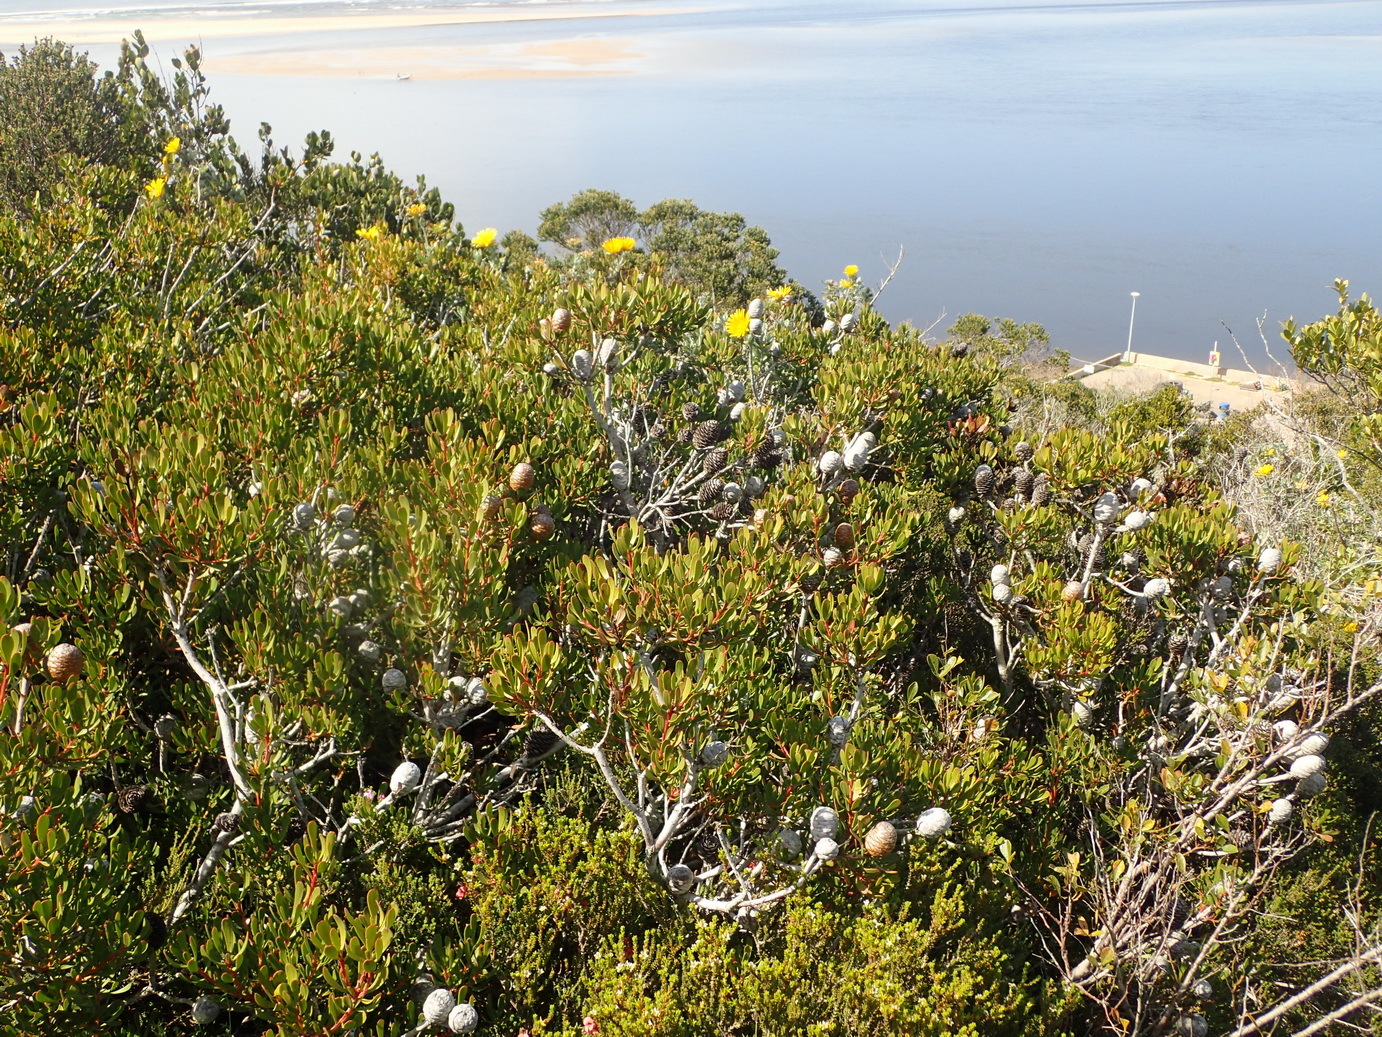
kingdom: Plantae
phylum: Tracheophyta
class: Magnoliopsida
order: Proteales
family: Proteaceae
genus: Leucadendron
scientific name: Leucadendron muirii
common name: Silver-ball conebush
